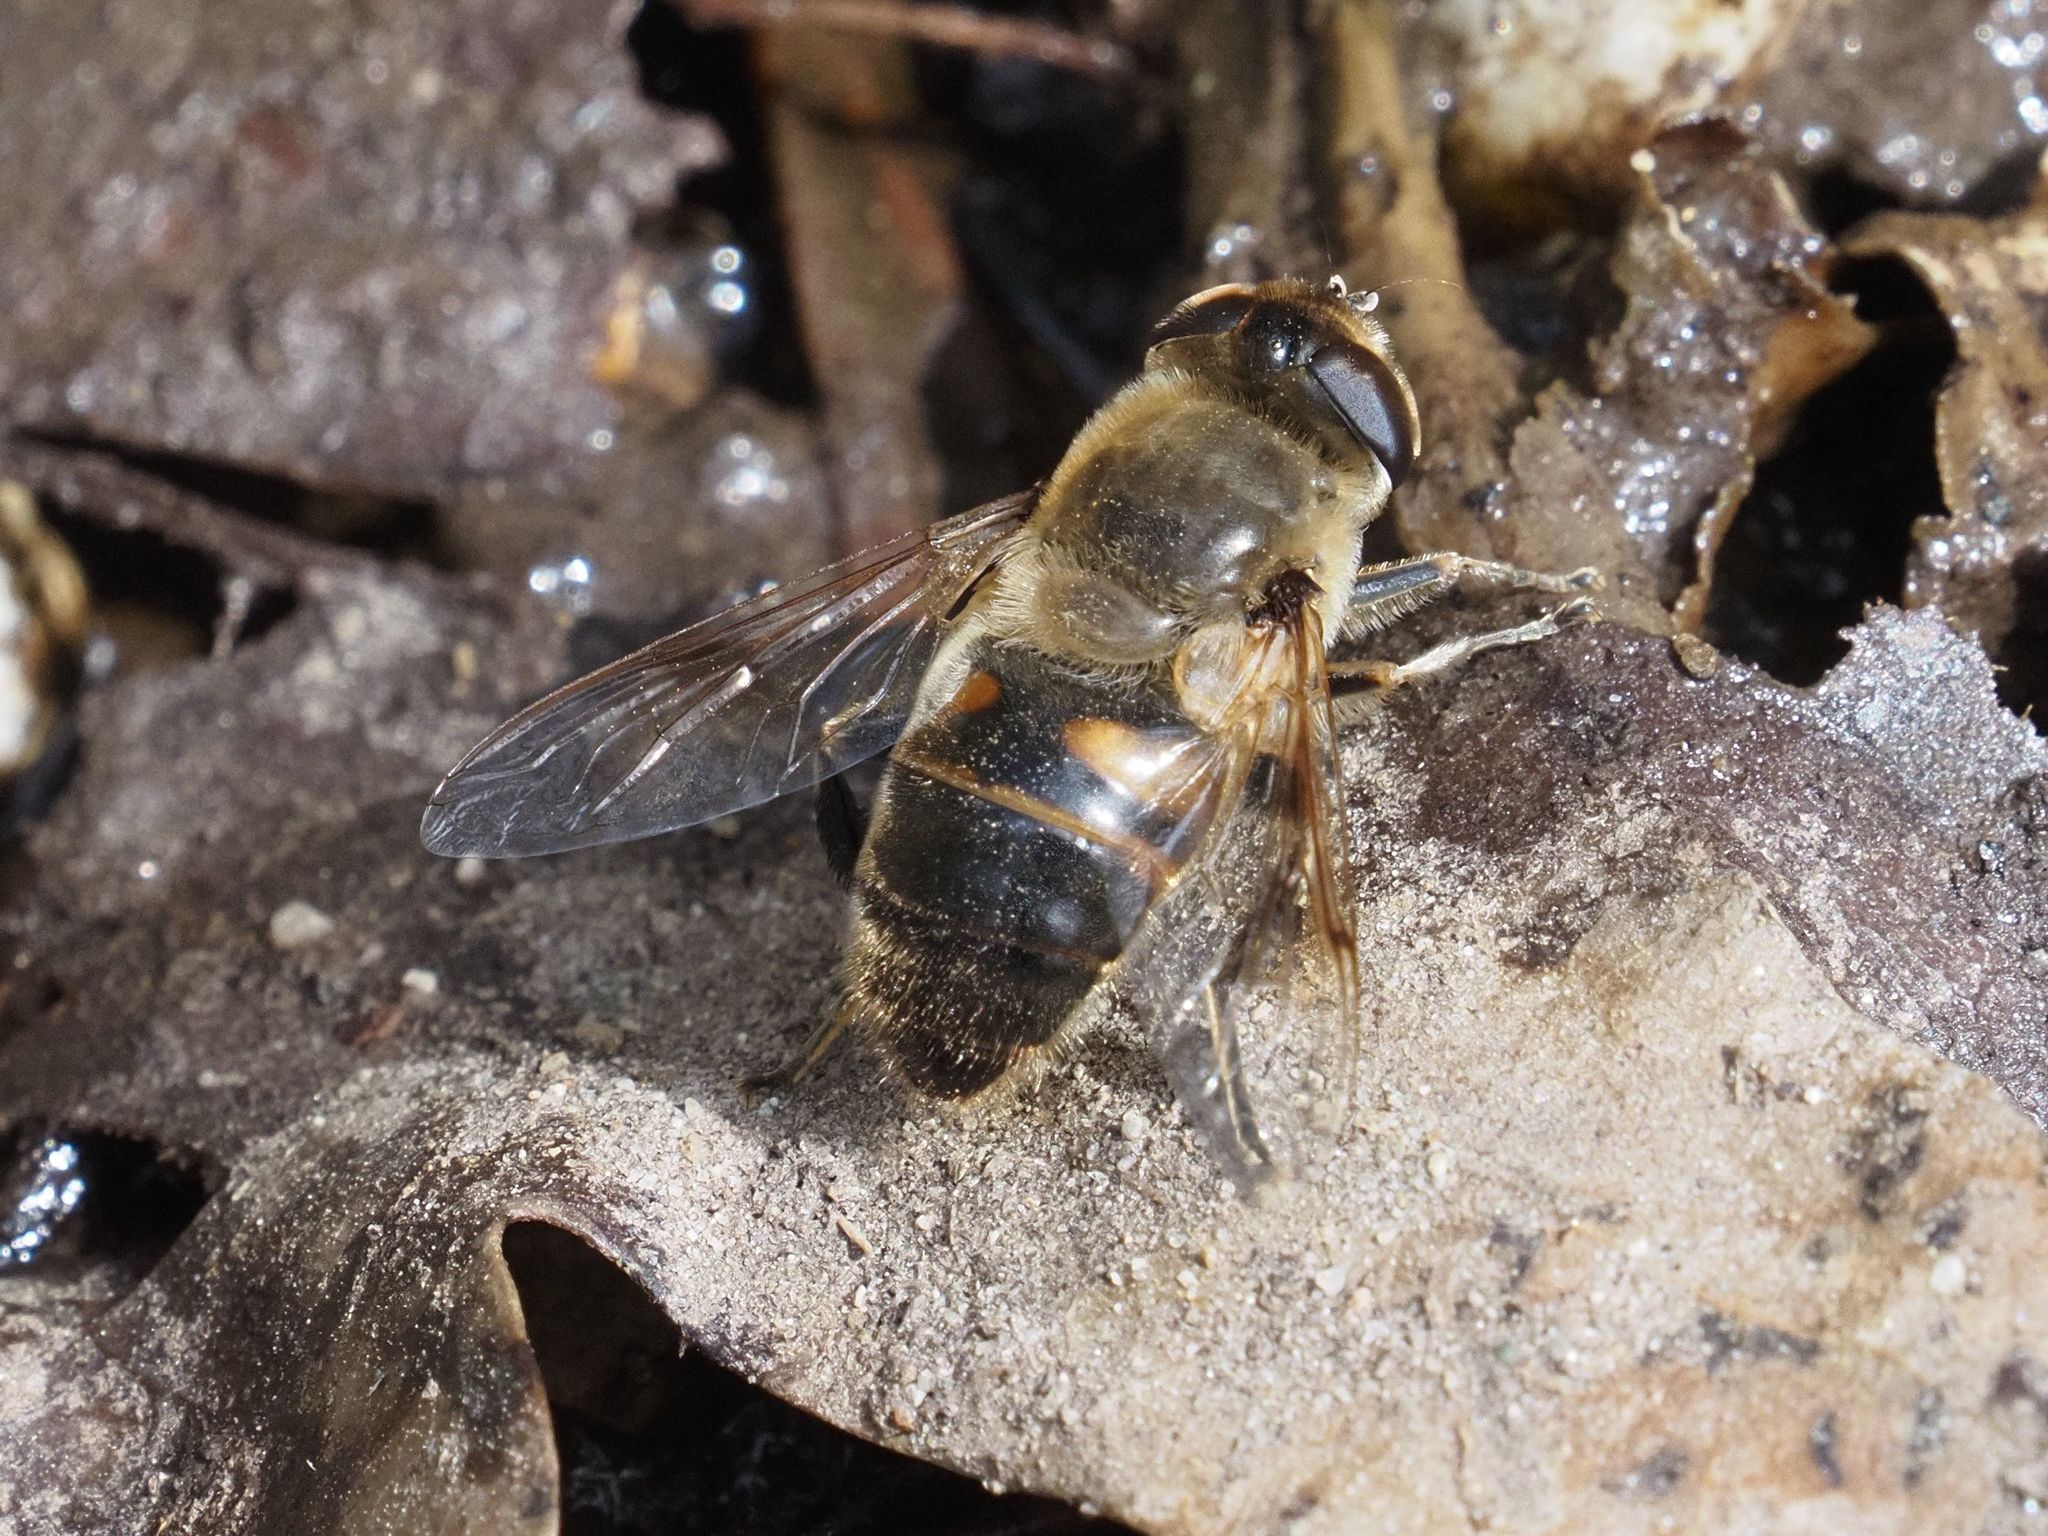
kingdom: Animalia
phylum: Arthropoda
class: Insecta
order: Diptera
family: Syrphidae
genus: Eristalis
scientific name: Eristalis tenax
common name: Drone fly
